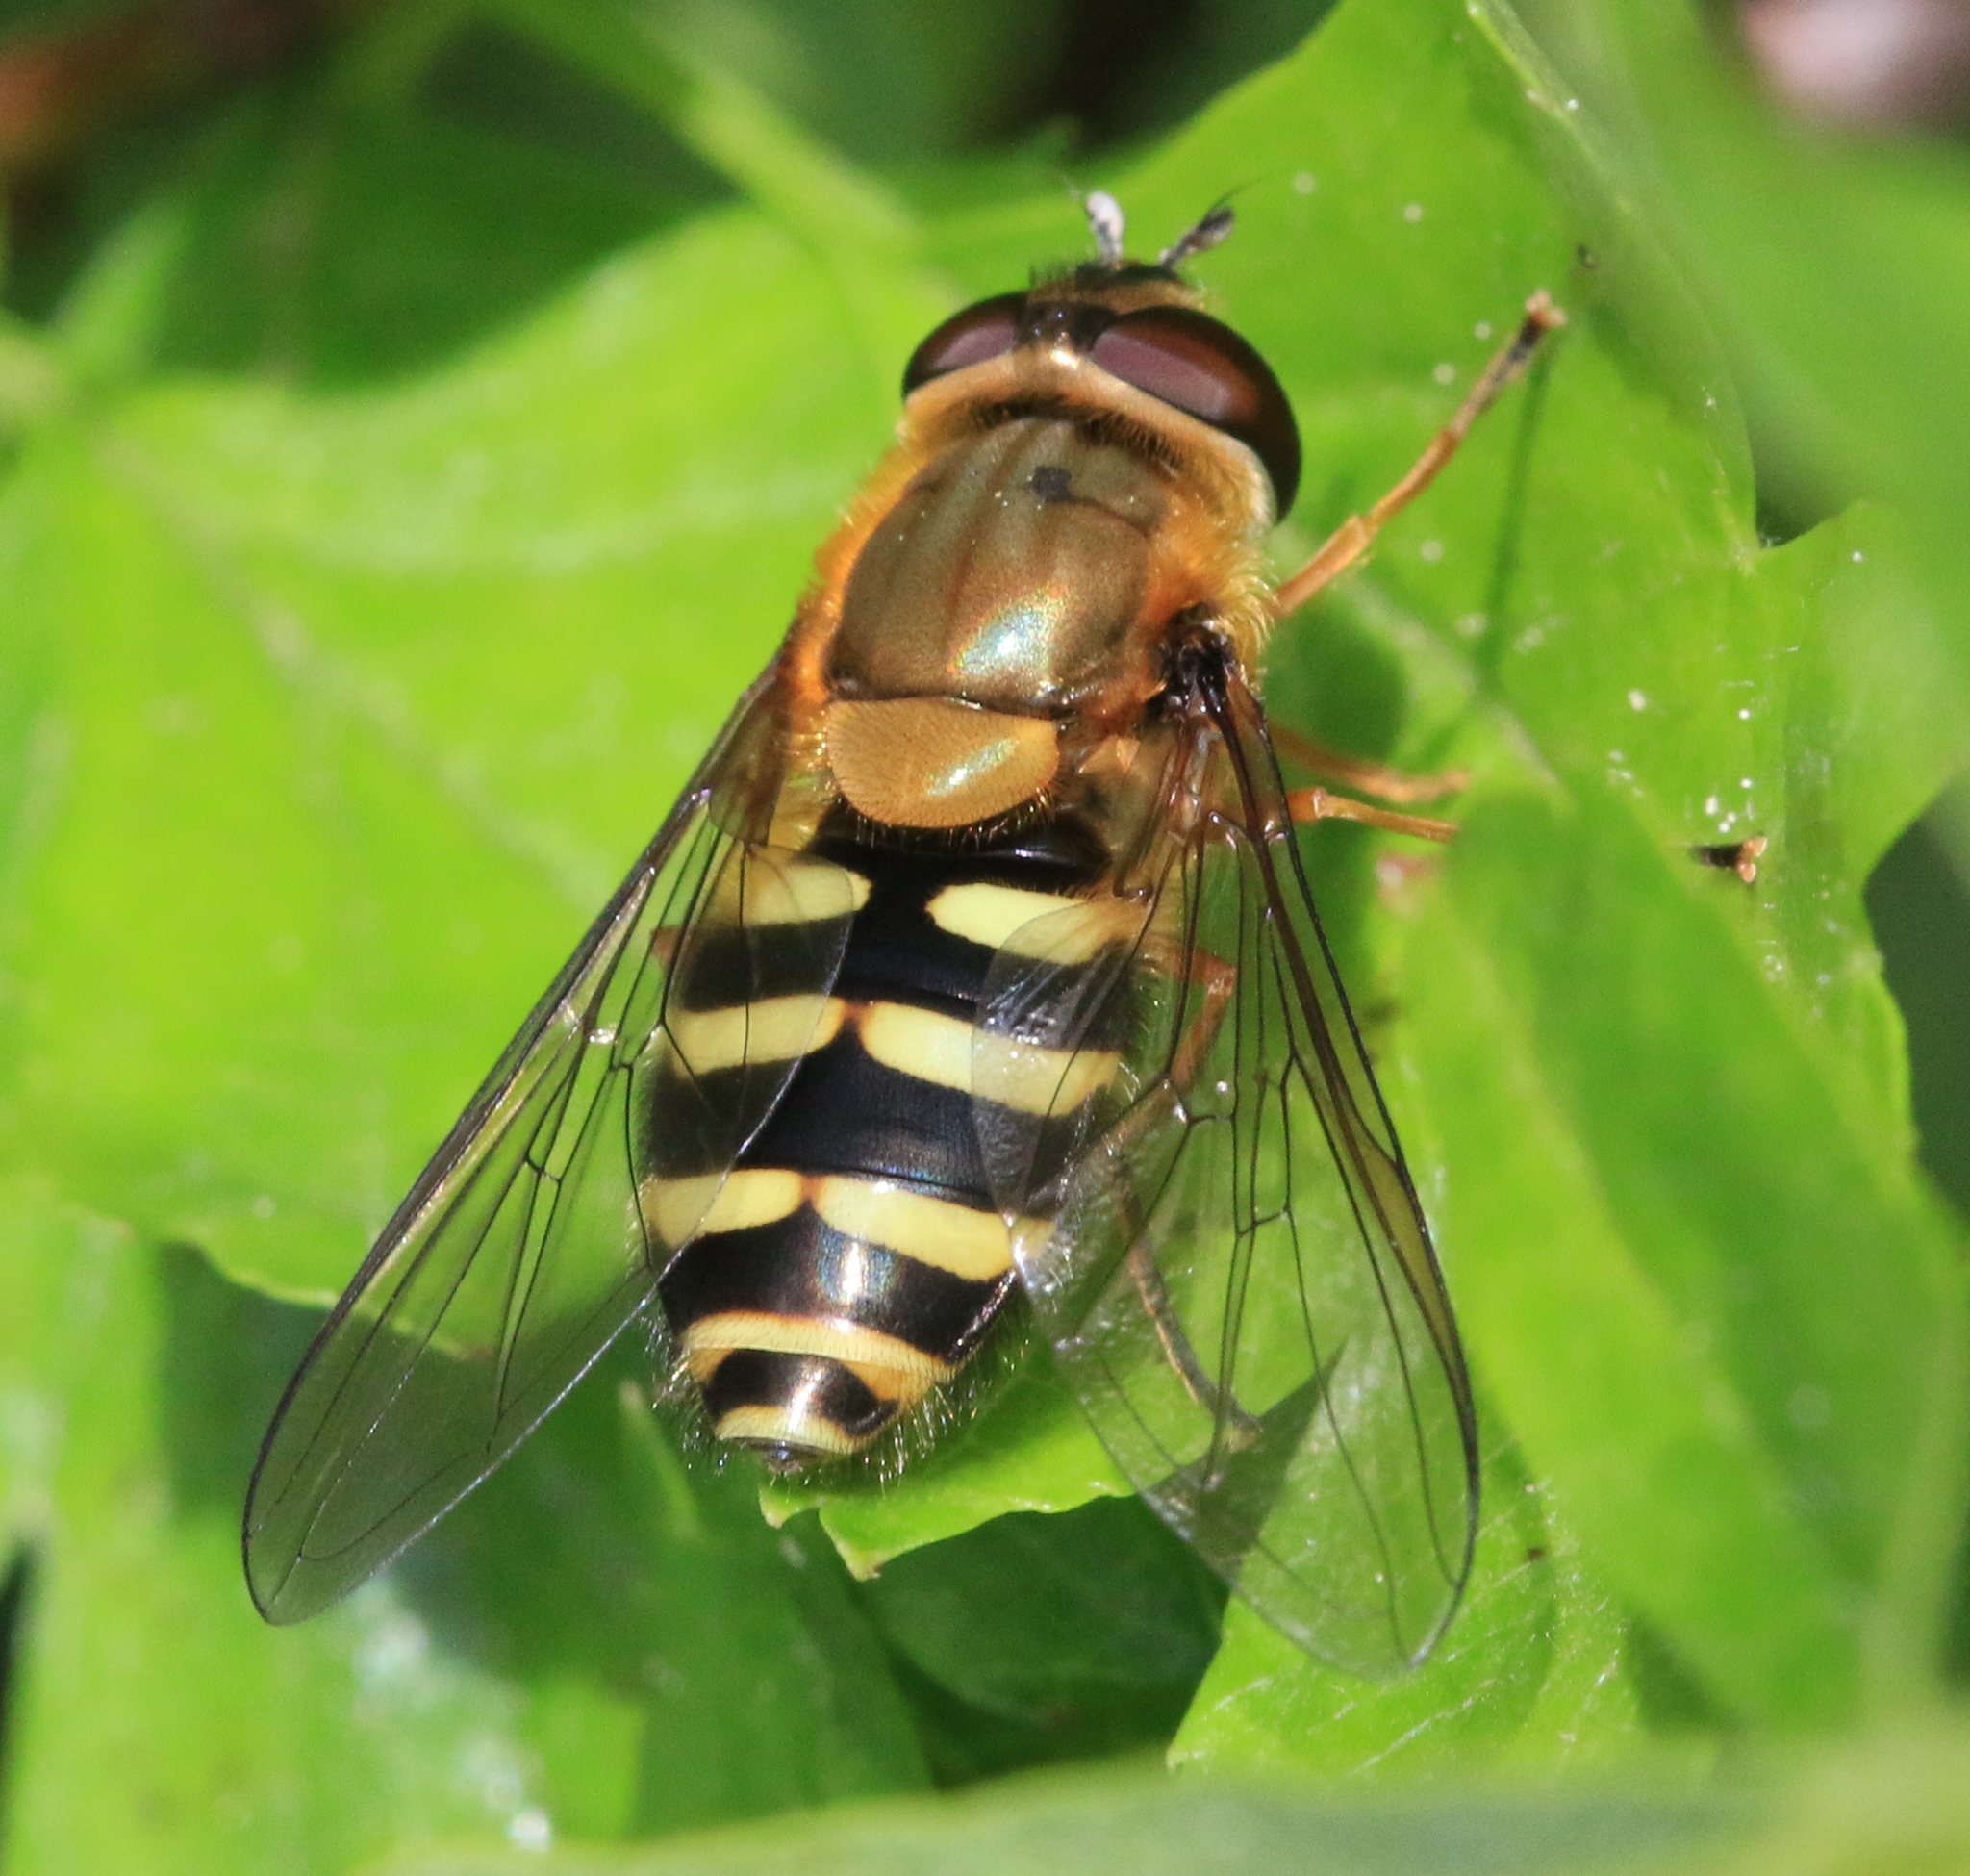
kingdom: Animalia
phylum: Arthropoda
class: Insecta
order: Diptera
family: Syrphidae
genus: Syrphus
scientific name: Syrphus
